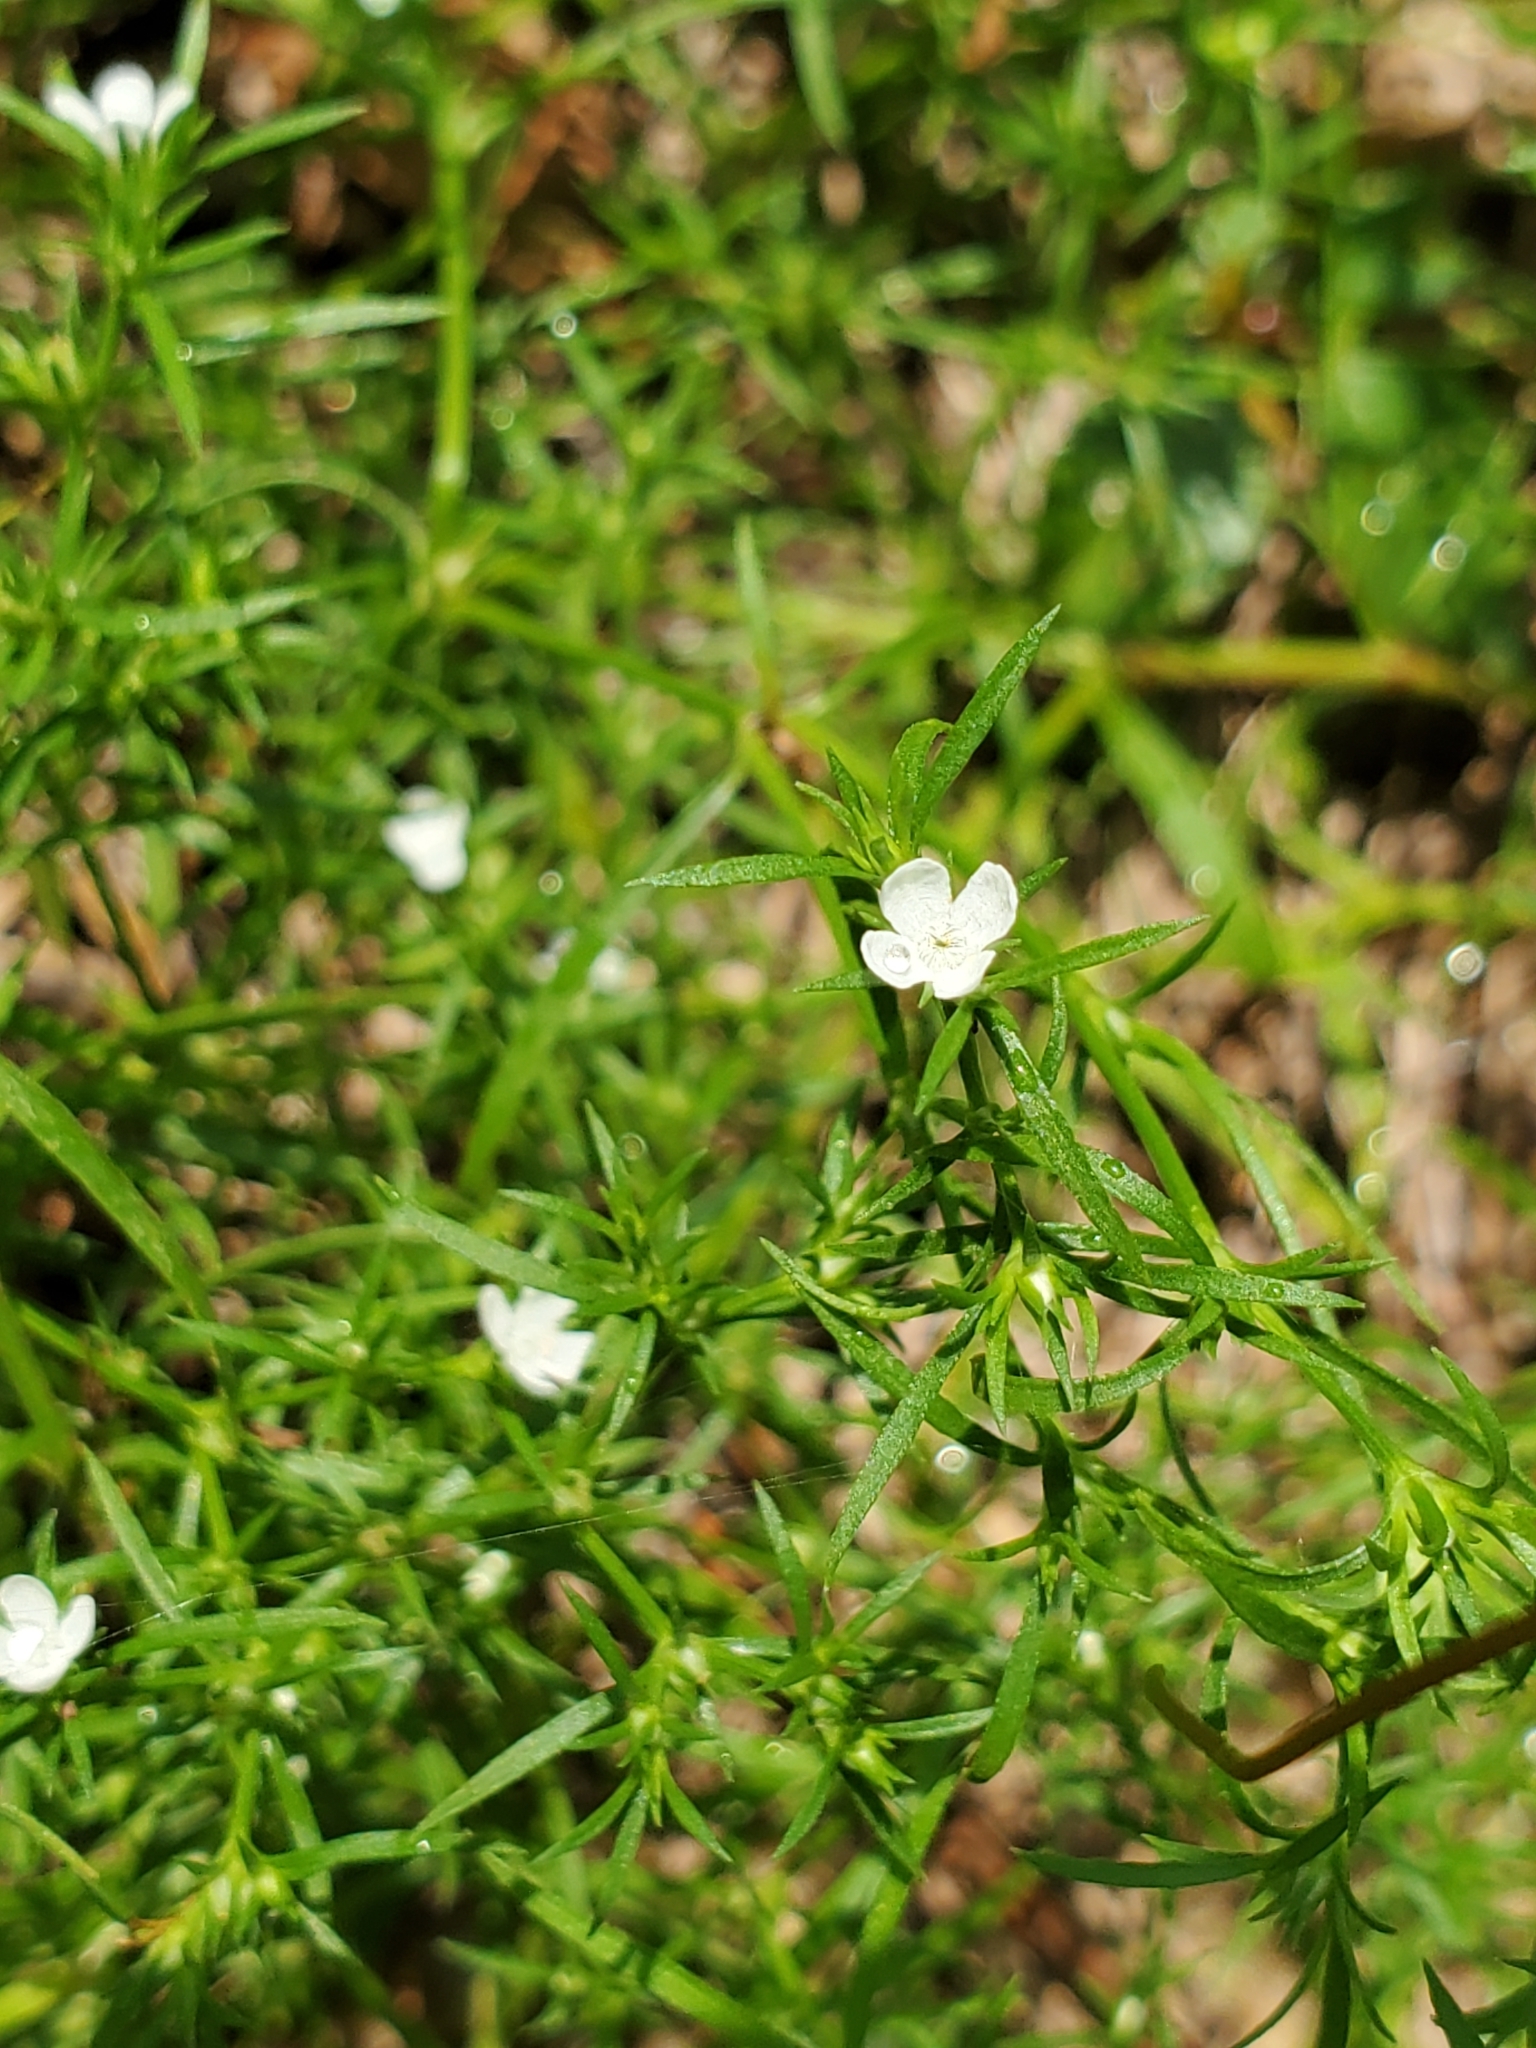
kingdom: Plantae
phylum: Tracheophyta
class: Magnoliopsida
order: Lamiales
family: Tetrachondraceae
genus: Polypremum
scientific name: Polypremum procumbens
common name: Juniper-leaf
